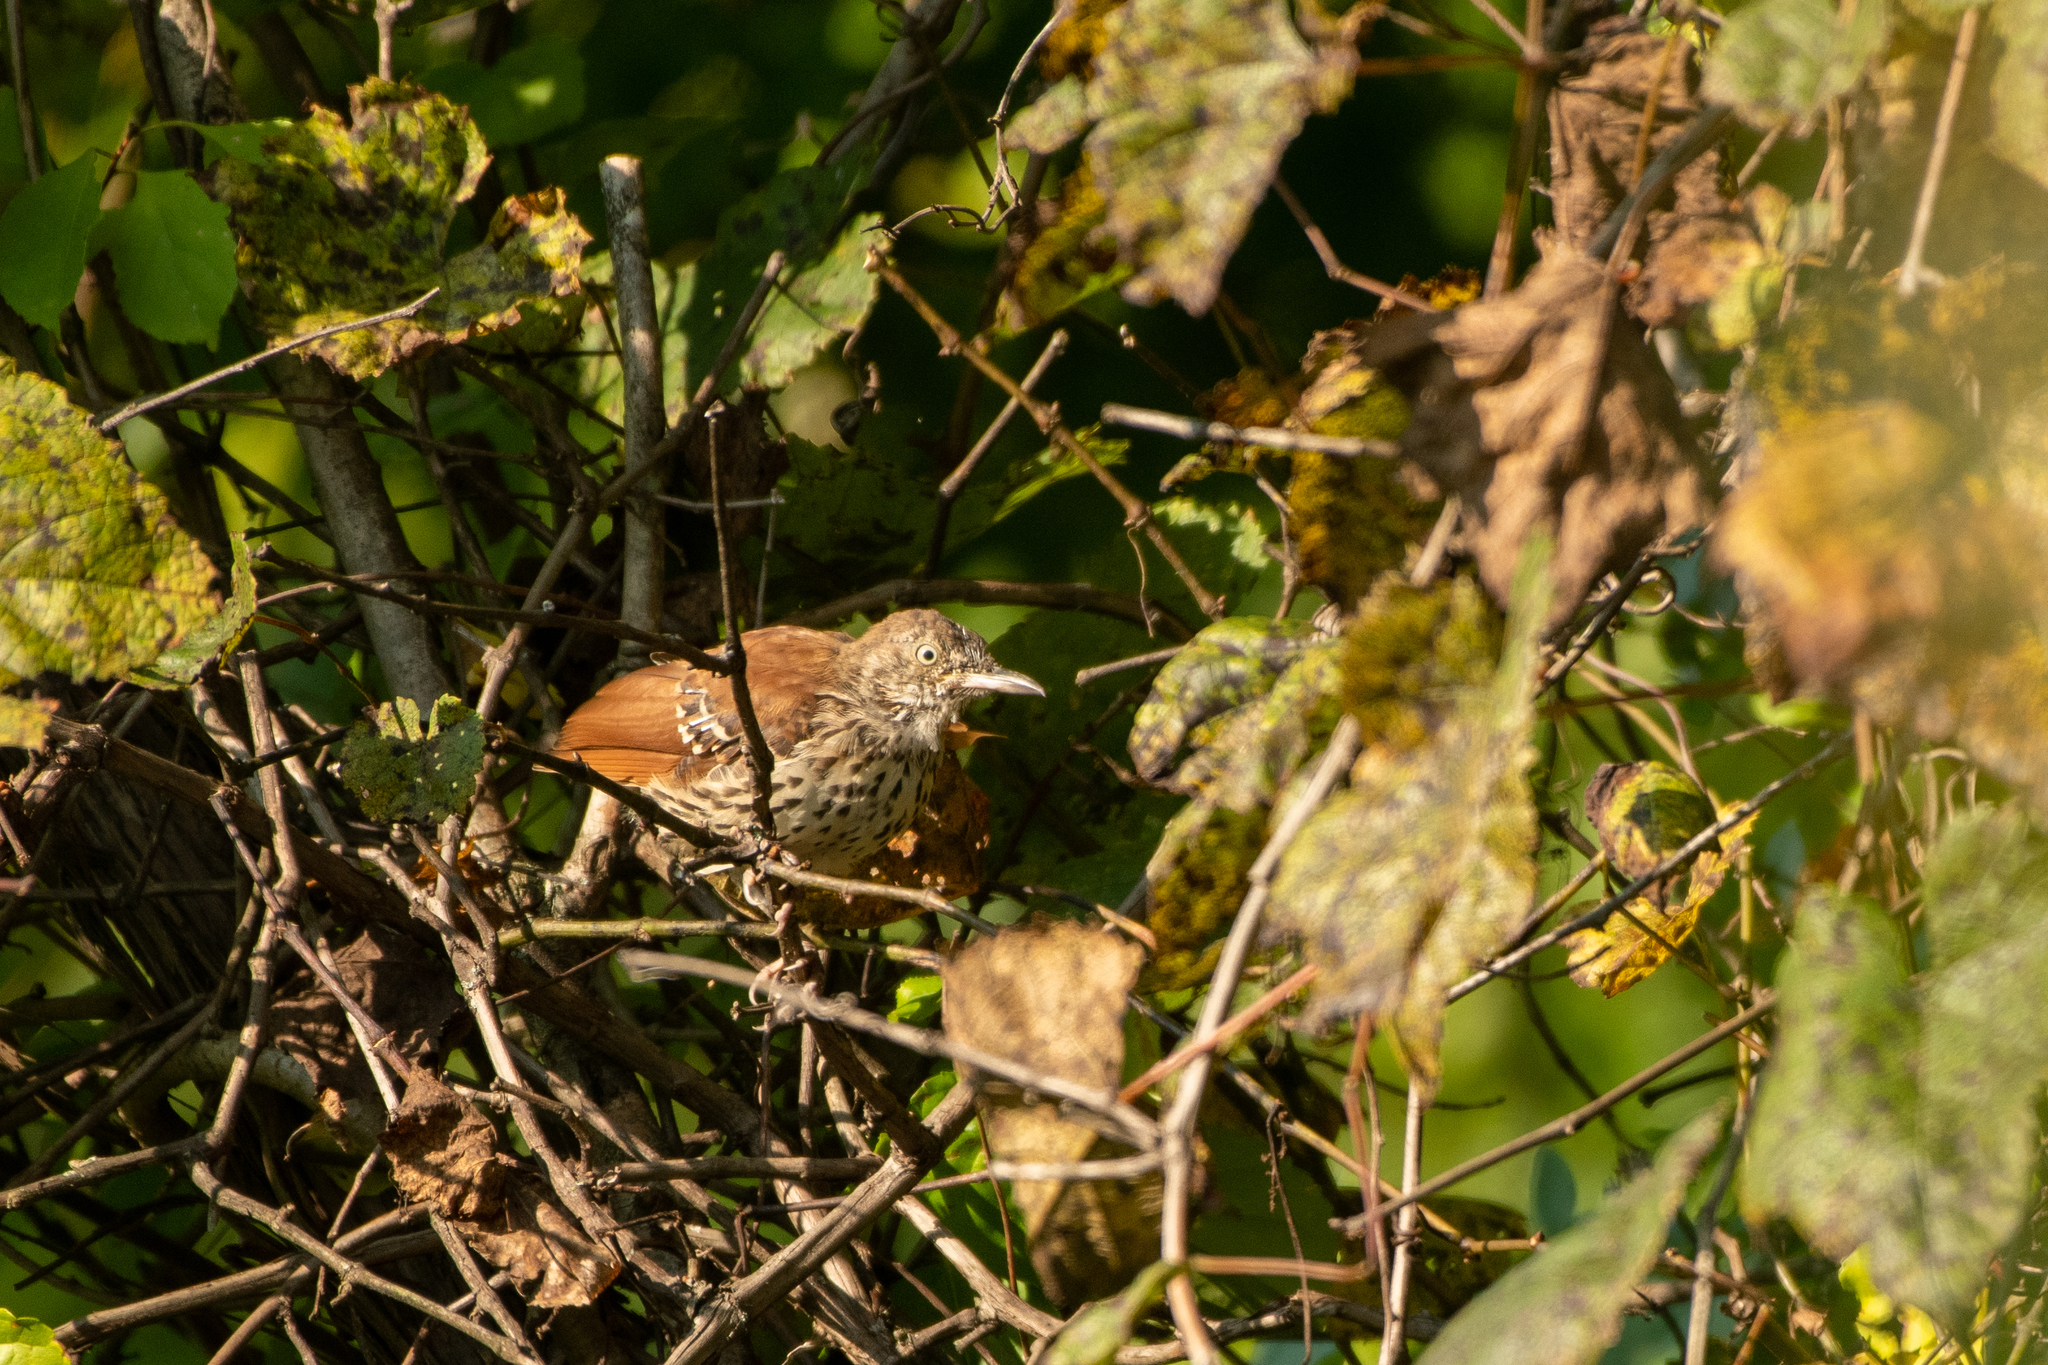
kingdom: Animalia
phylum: Chordata
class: Aves
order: Passeriformes
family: Mimidae
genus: Toxostoma
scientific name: Toxostoma rufum
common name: Brown thrasher
